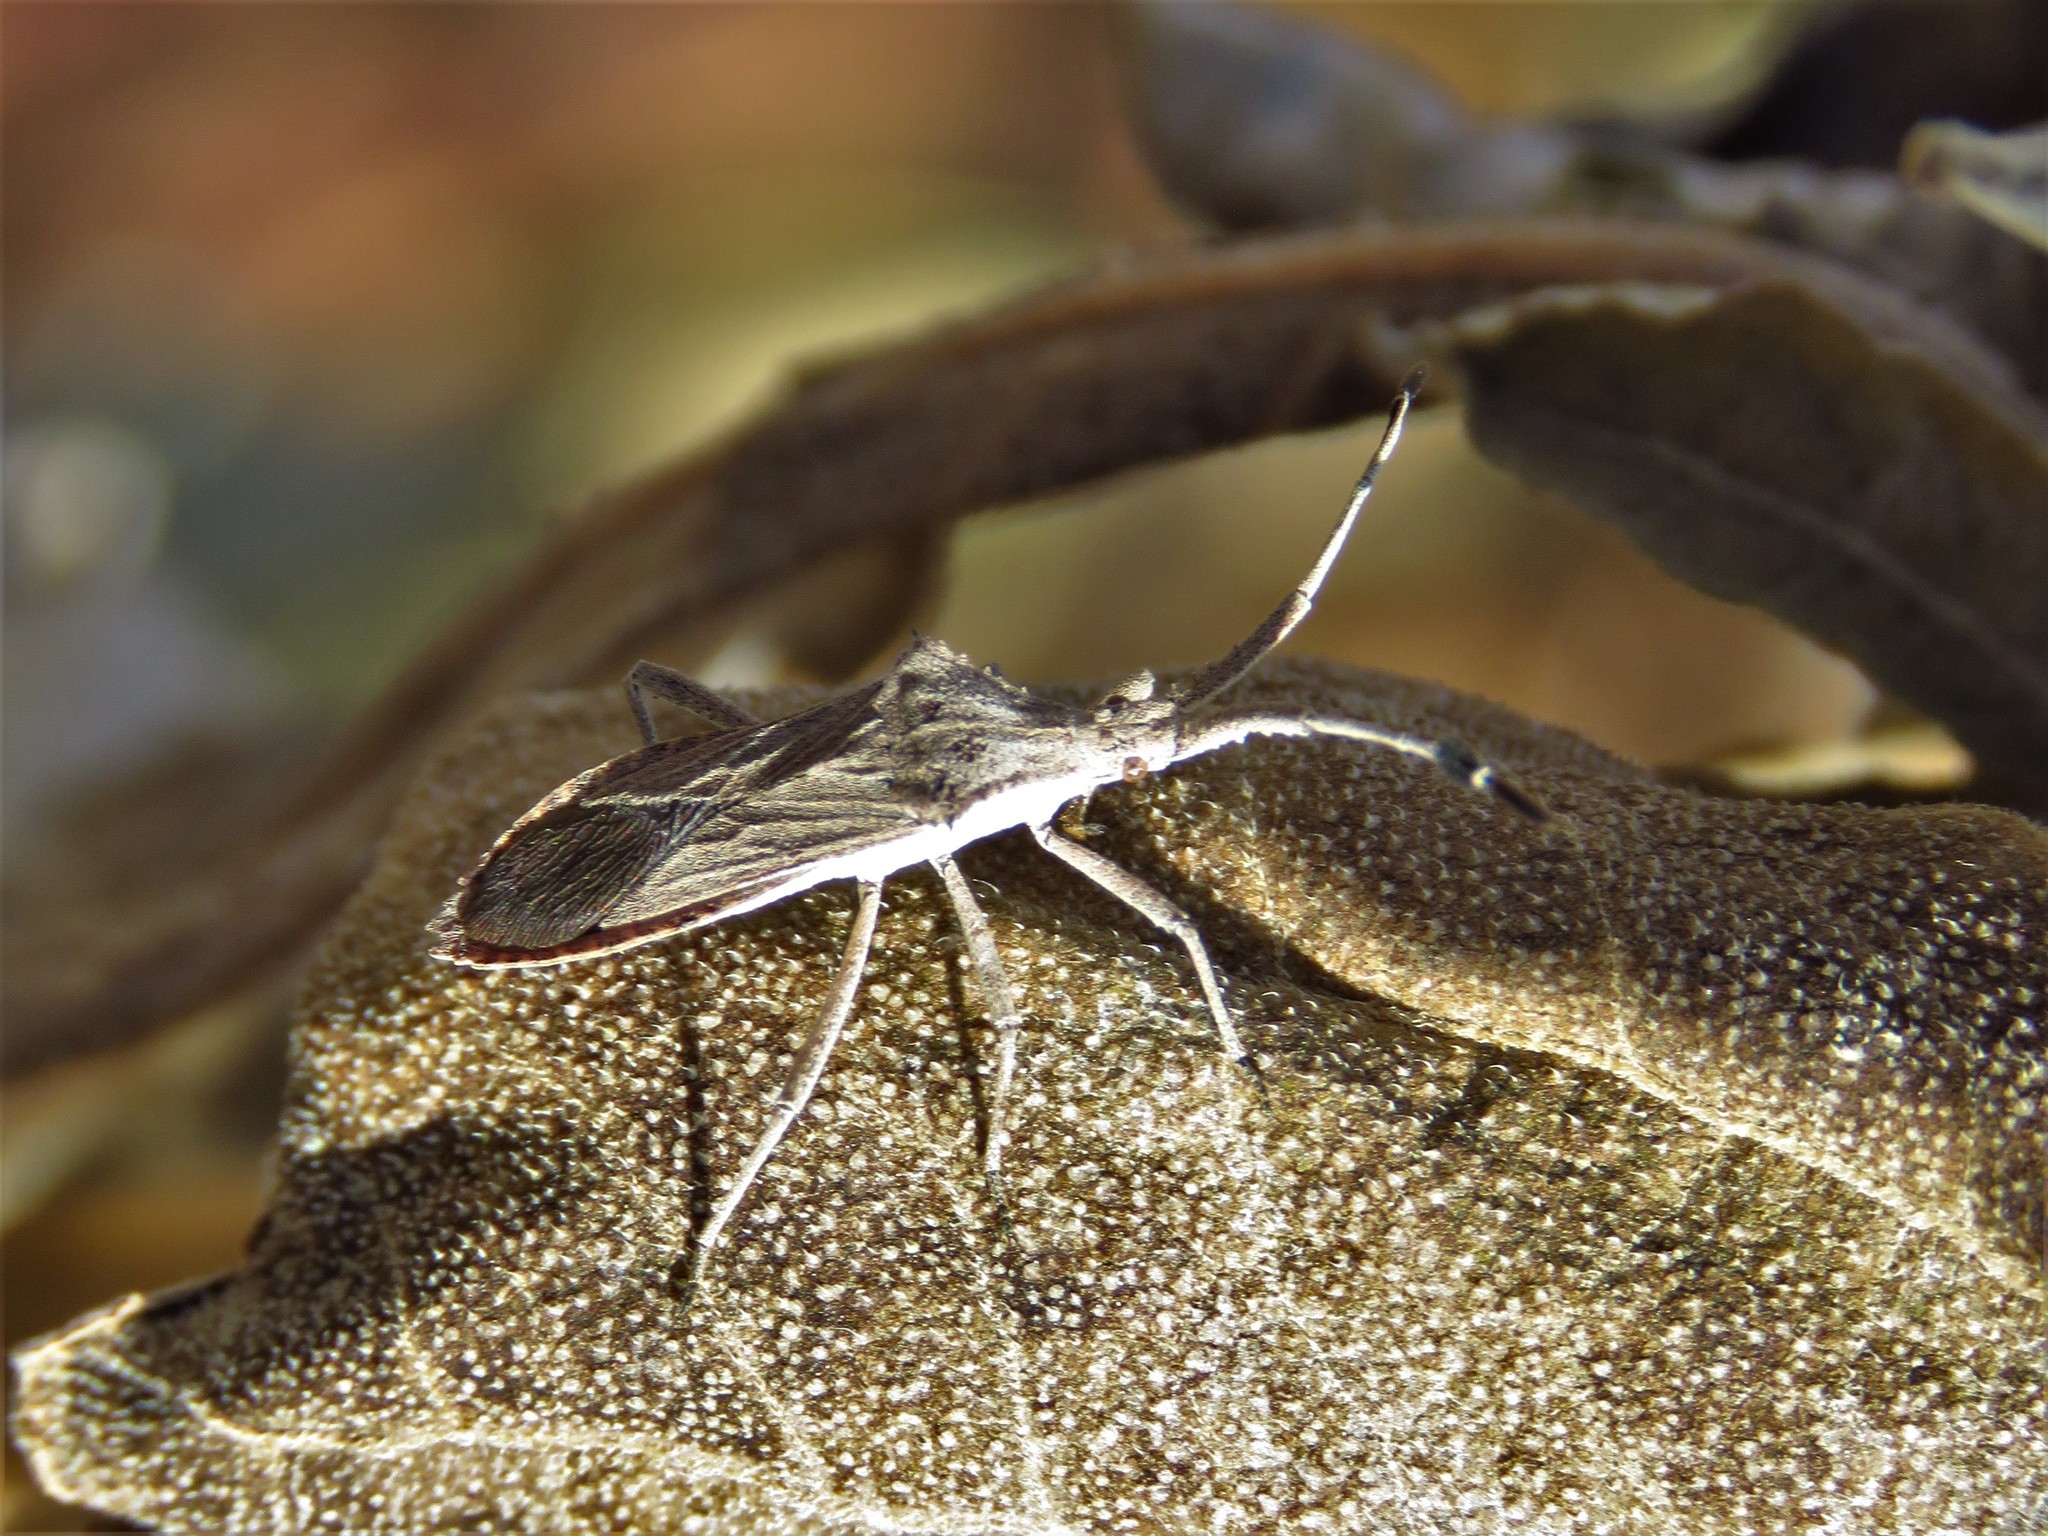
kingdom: Animalia
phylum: Arthropoda
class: Insecta
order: Hemiptera
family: Coreidae
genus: Chariesterus
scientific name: Chariesterus antennator
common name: Flat horned coreid
